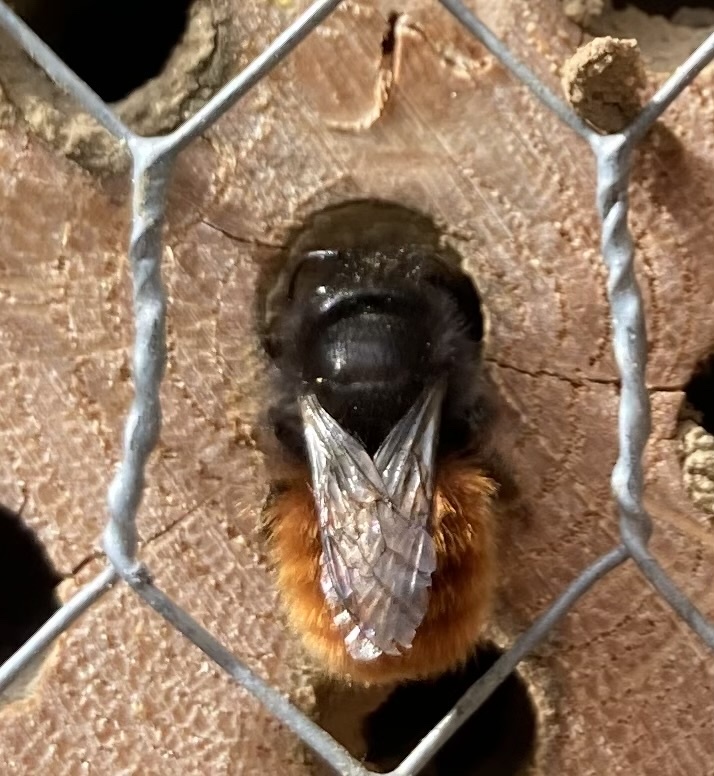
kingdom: Animalia
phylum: Arthropoda
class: Insecta
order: Hymenoptera
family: Megachilidae
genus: Osmia
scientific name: Osmia cornuta
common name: Mason bee
